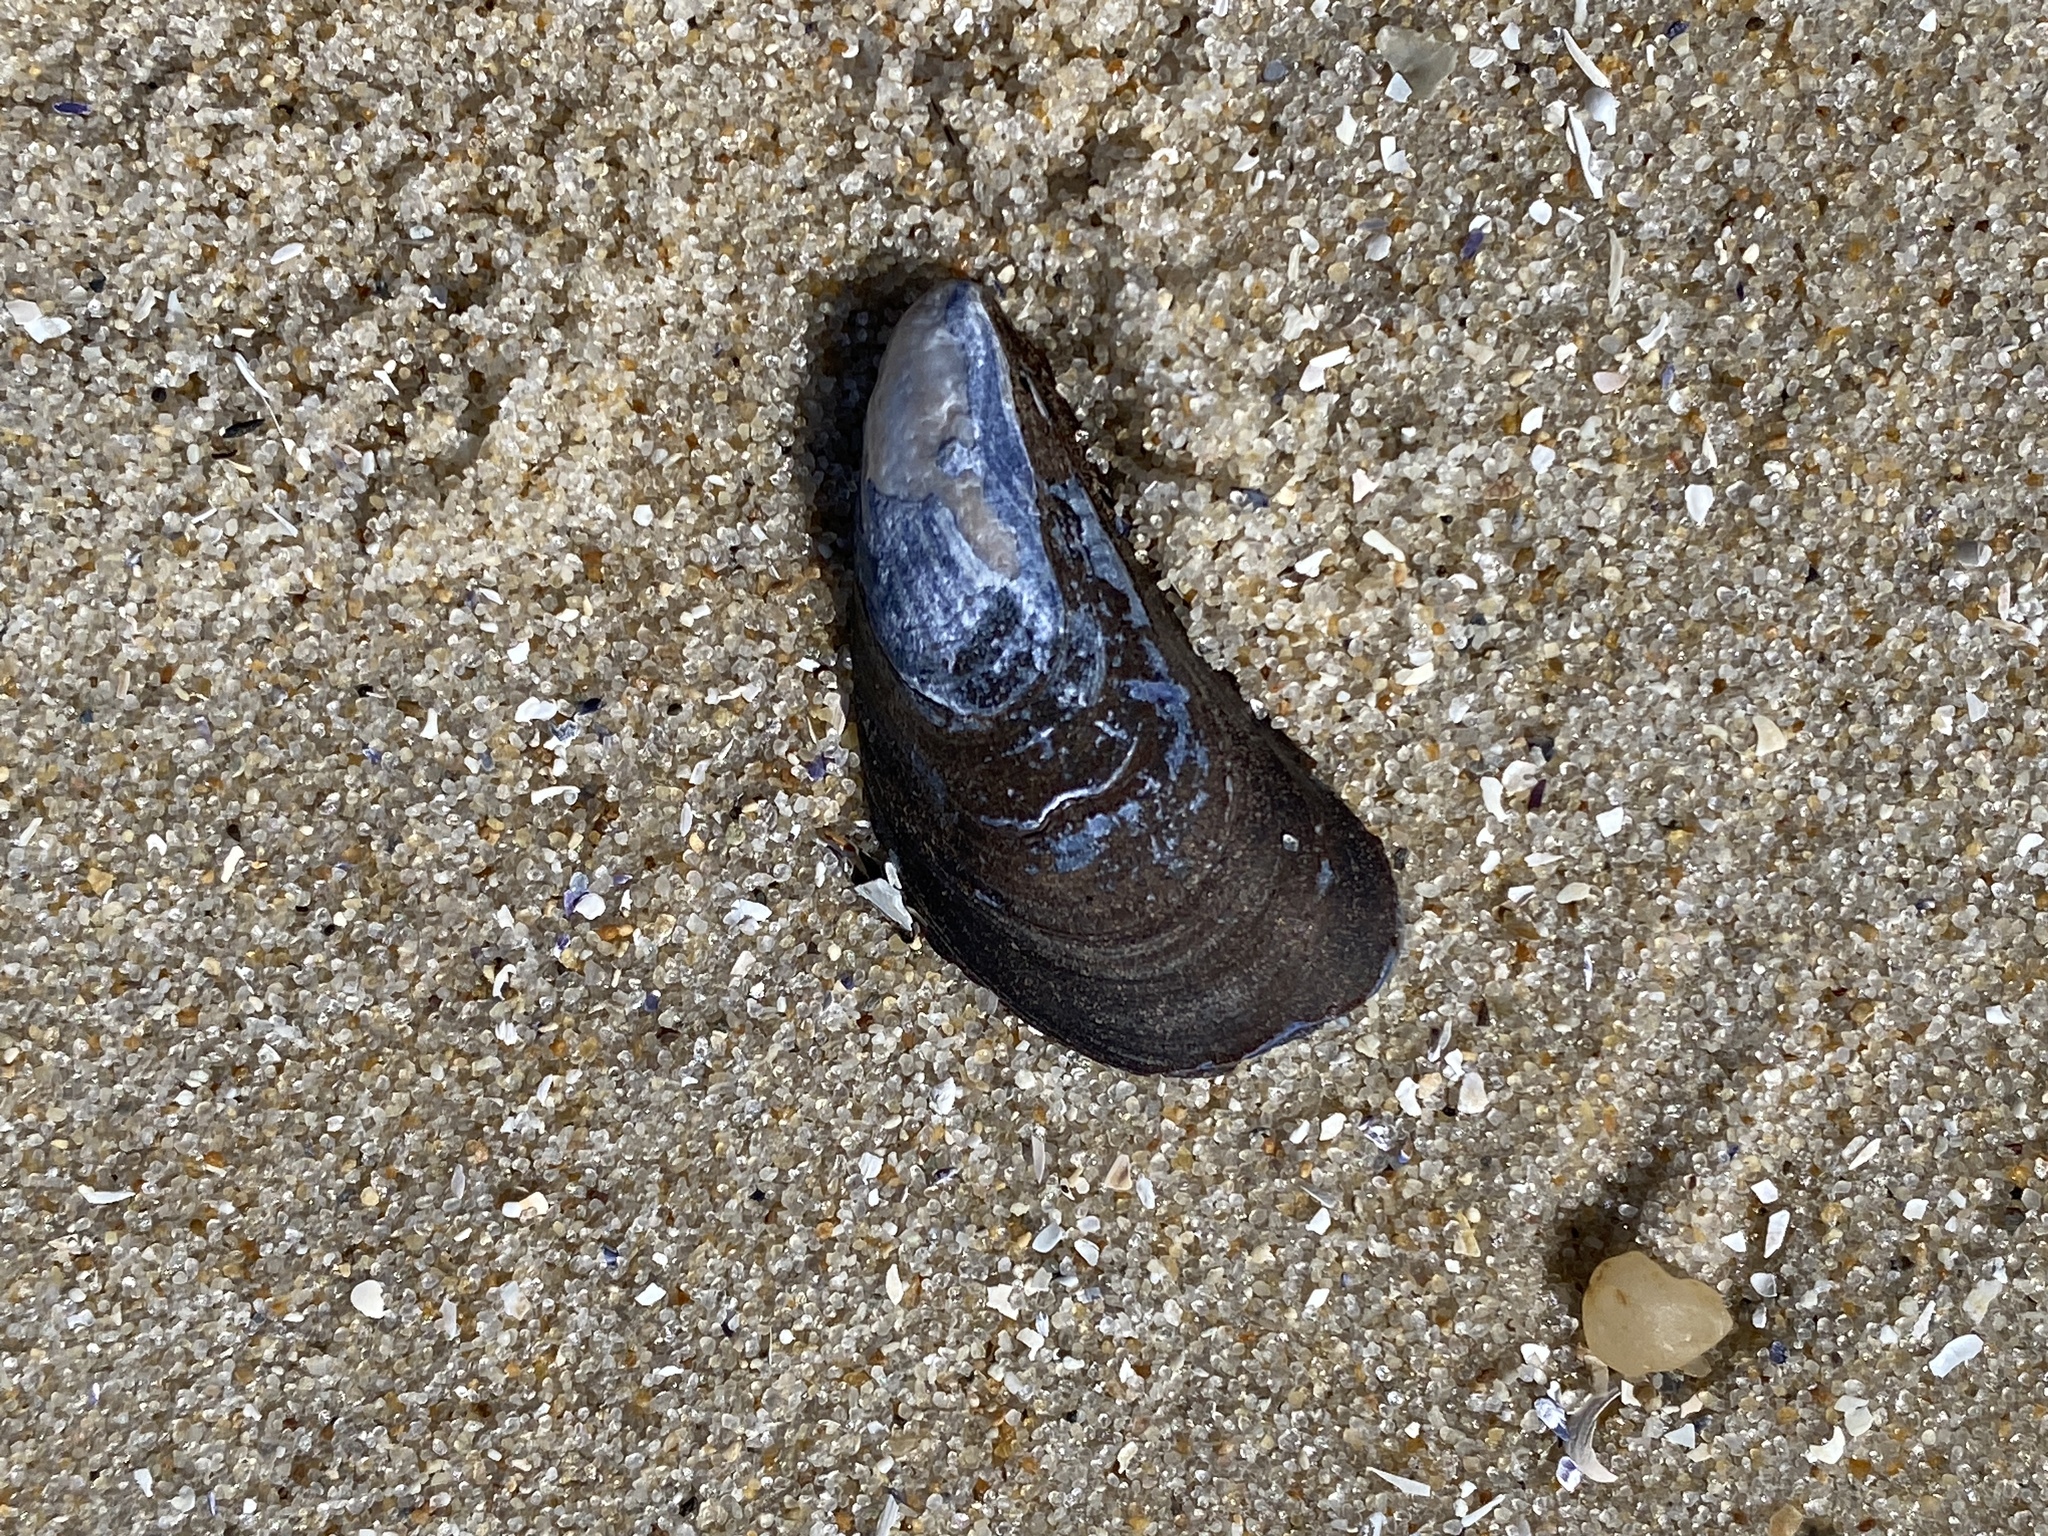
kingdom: Animalia
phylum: Mollusca
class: Bivalvia
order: Mytilida
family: Mytilidae
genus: Mytilus
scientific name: Mytilus edulis
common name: Blue mussel
